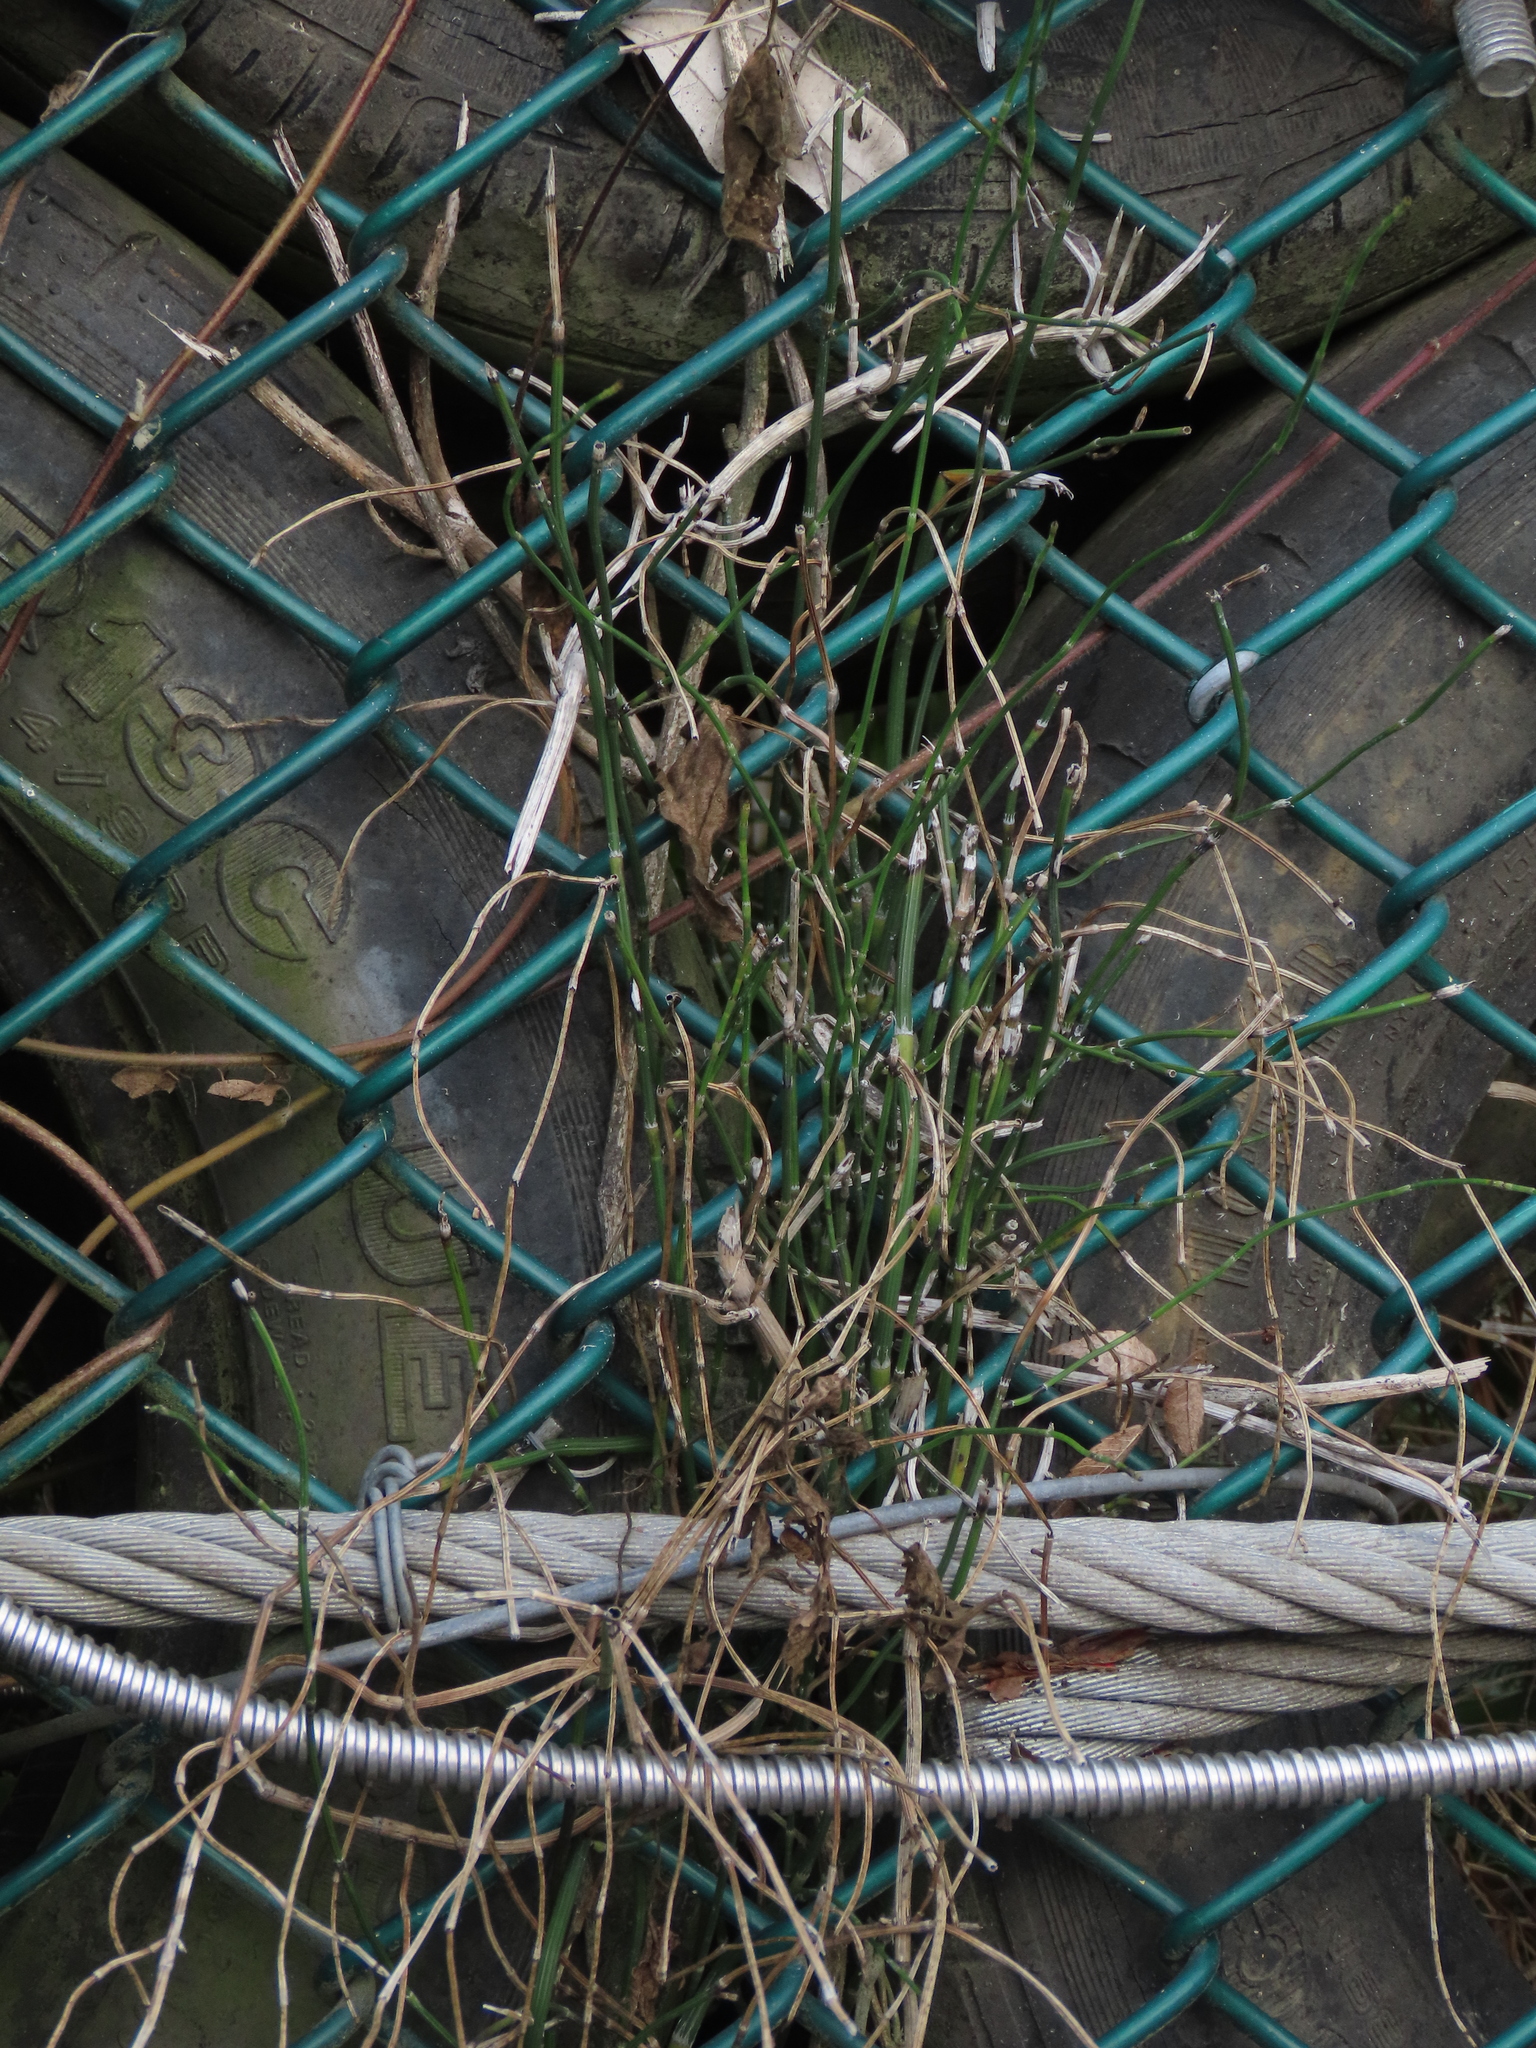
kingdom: Plantae
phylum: Tracheophyta
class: Polypodiopsida
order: Equisetales
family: Equisetaceae
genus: Equisetum
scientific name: Equisetum ramosissimum
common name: Branched horsetail
